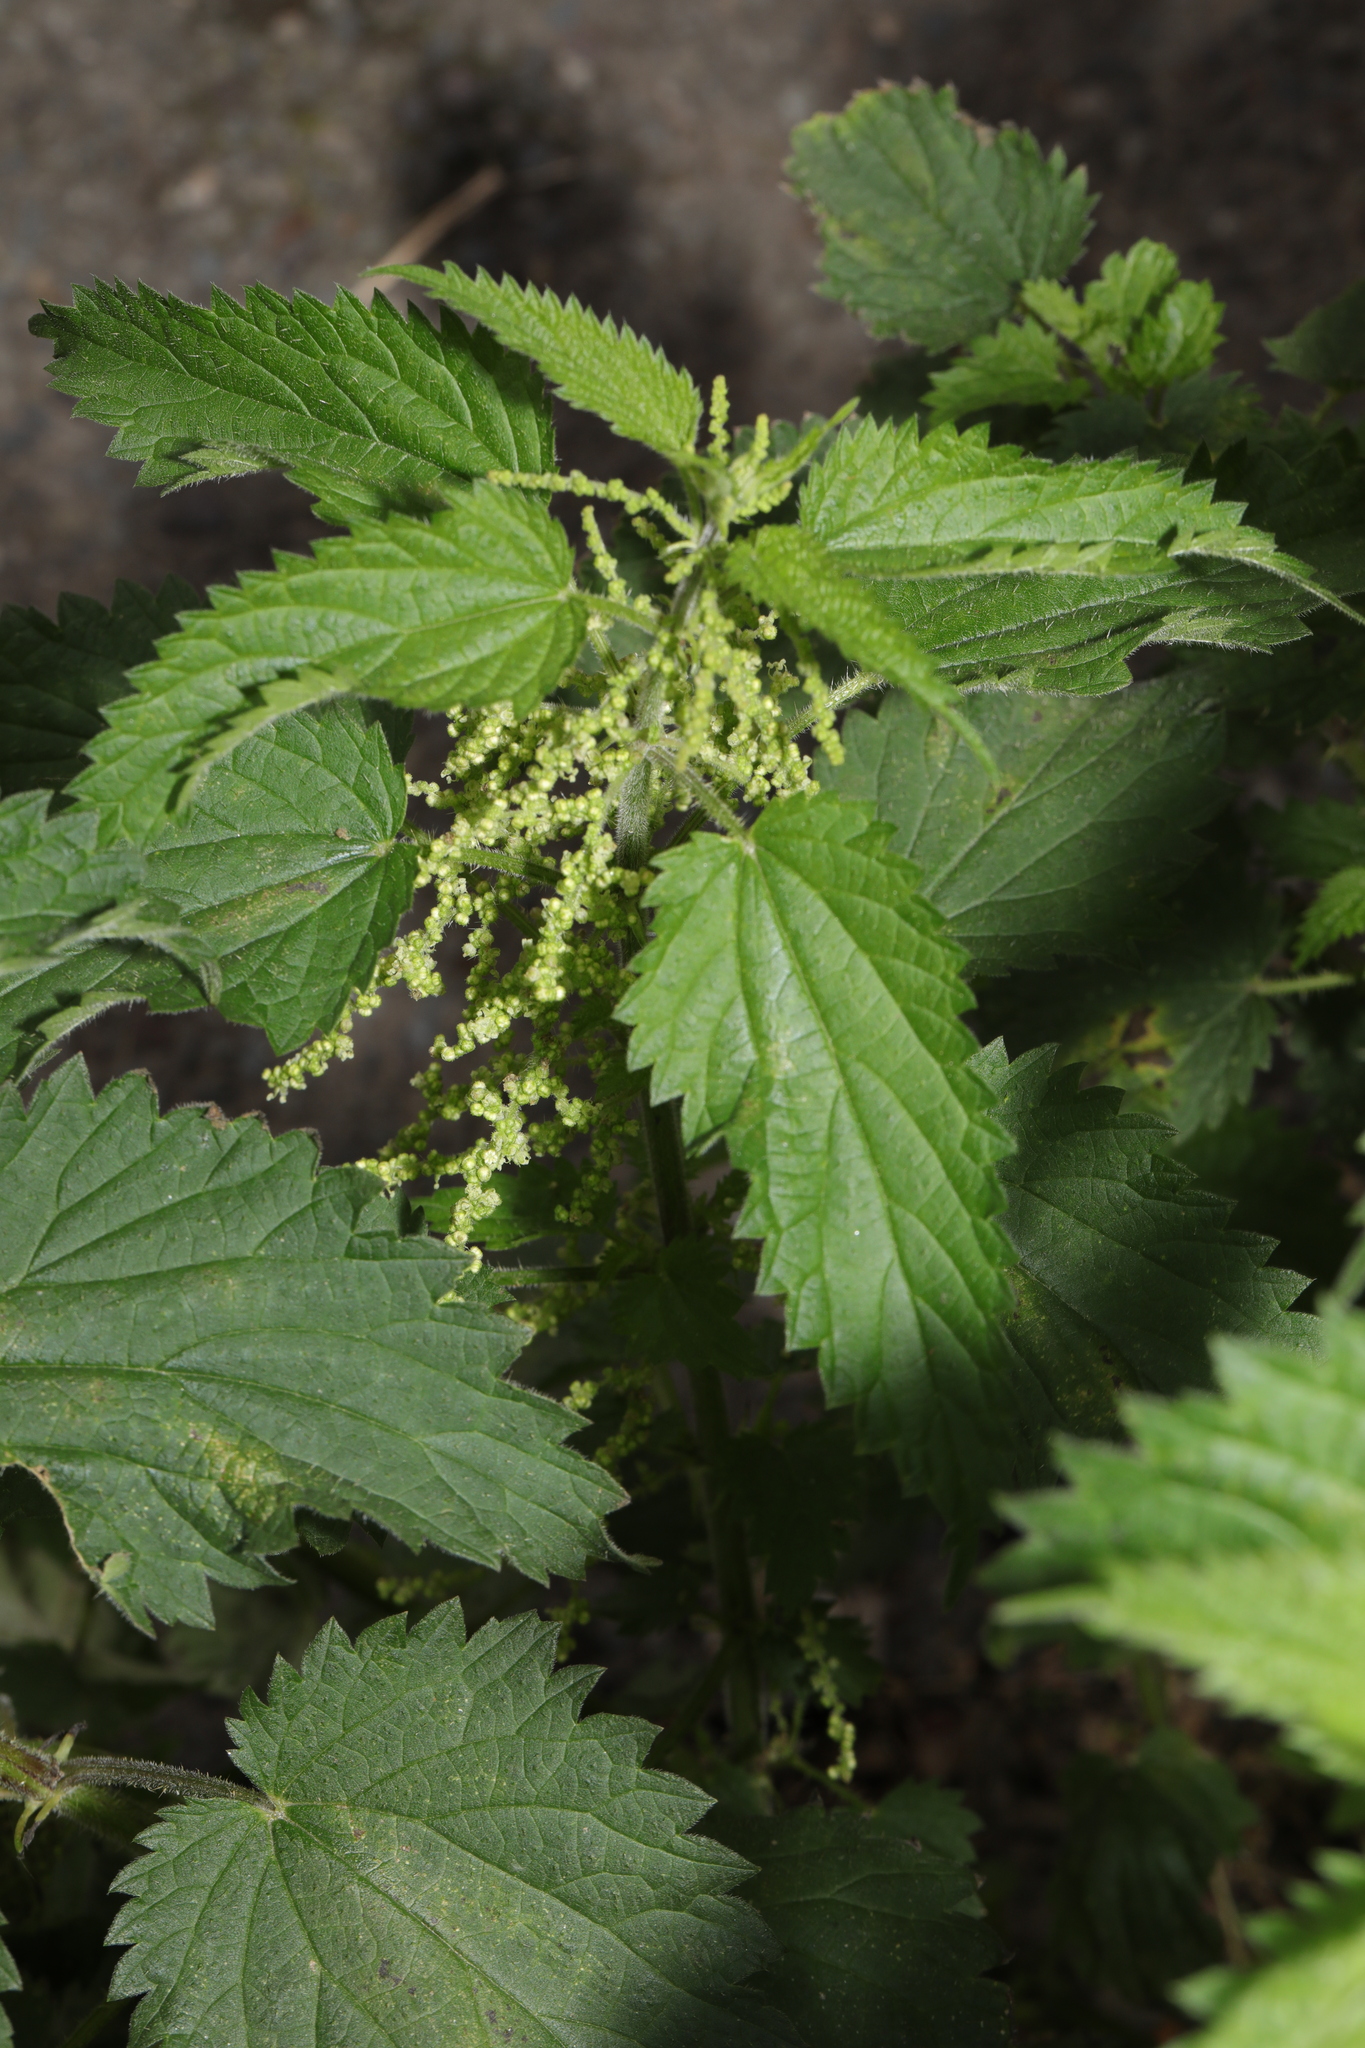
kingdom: Plantae
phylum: Tracheophyta
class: Magnoliopsida
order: Rosales
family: Urticaceae
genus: Urtica
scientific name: Urtica dioica
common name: Common nettle
